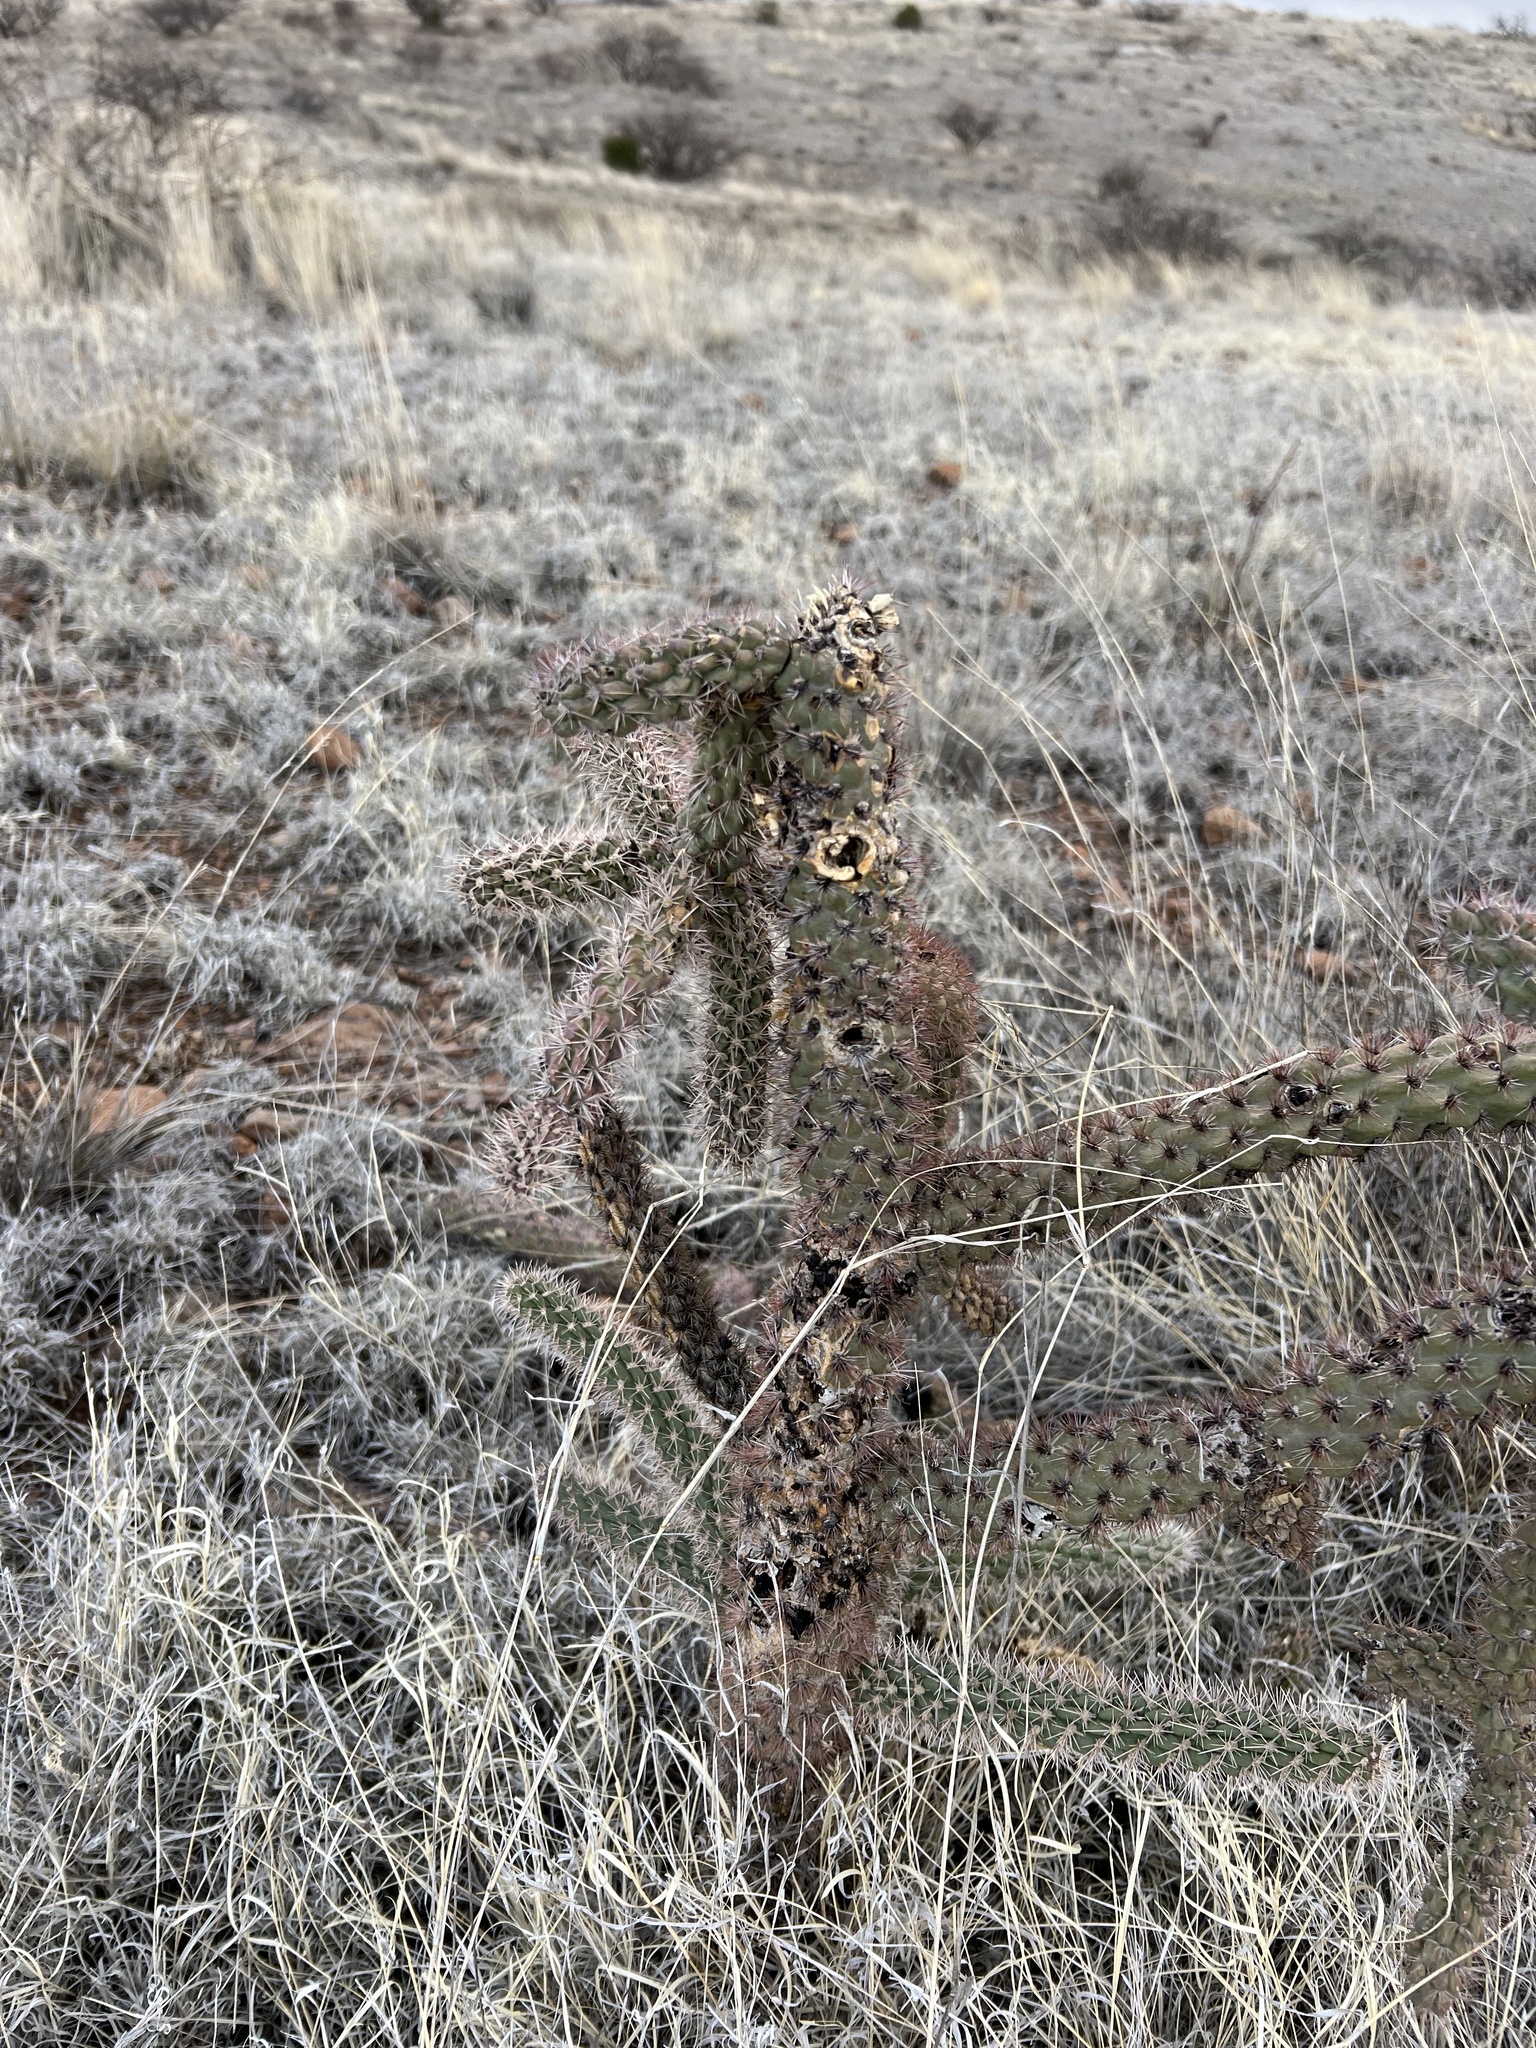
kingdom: Plantae
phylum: Tracheophyta
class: Magnoliopsida
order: Caryophyllales
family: Cactaceae
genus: Cylindropuntia
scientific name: Cylindropuntia imbricata
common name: Candelabrum cactus
